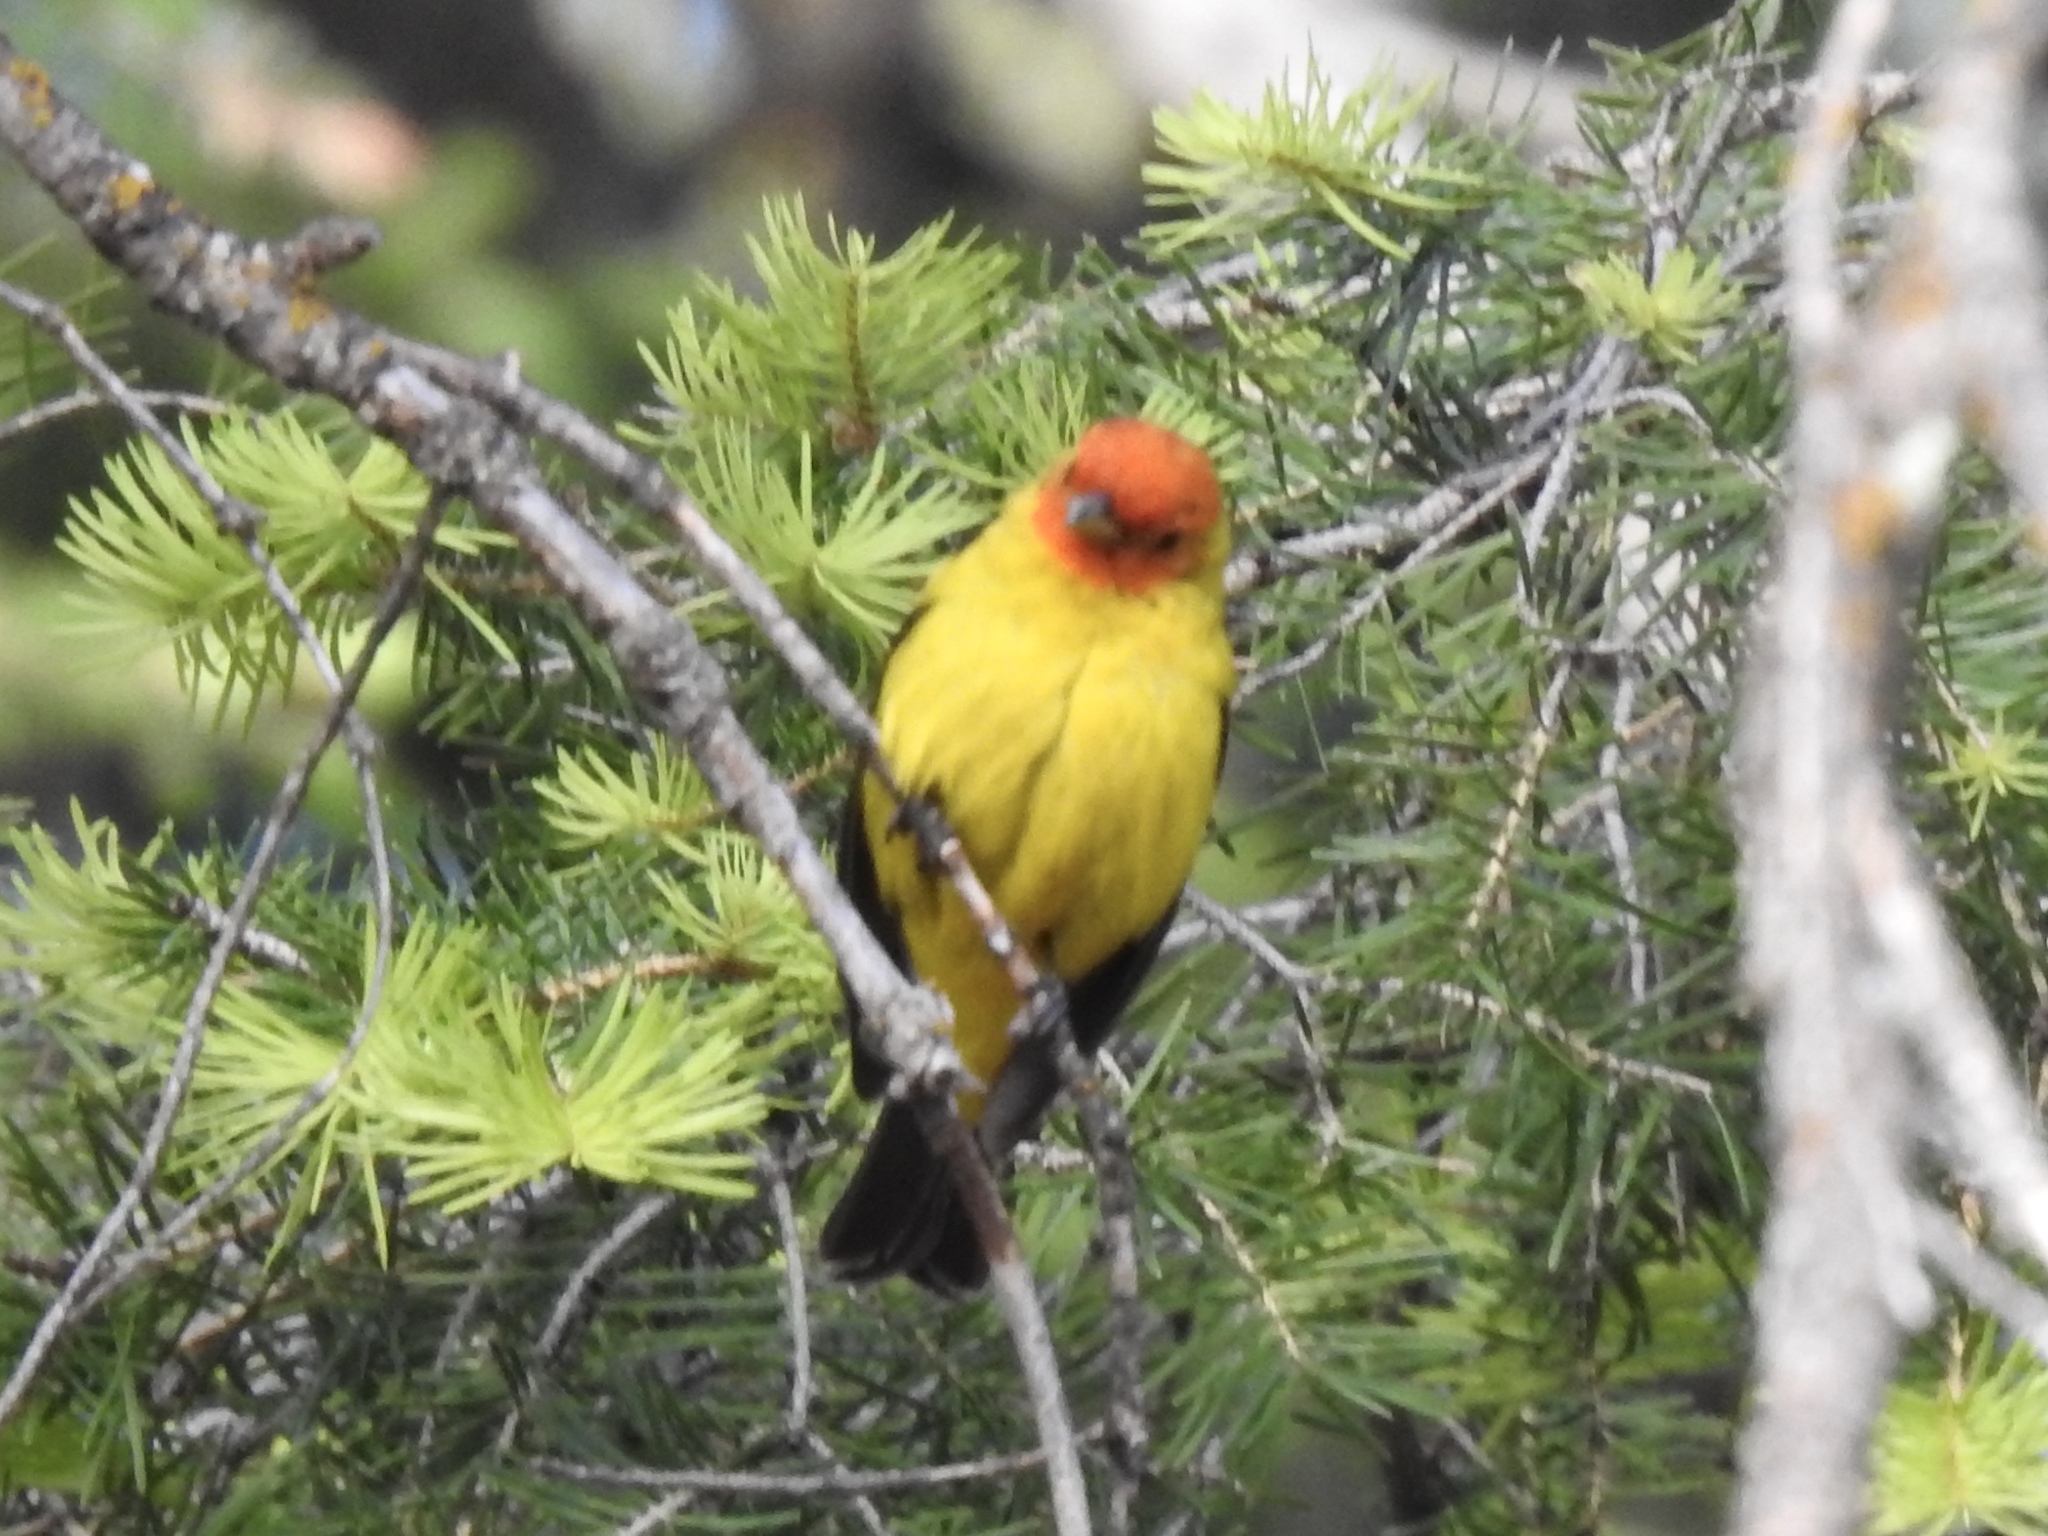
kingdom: Animalia
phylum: Chordata
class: Aves
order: Passeriformes
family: Cardinalidae
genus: Piranga
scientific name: Piranga ludoviciana
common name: Western tanager
